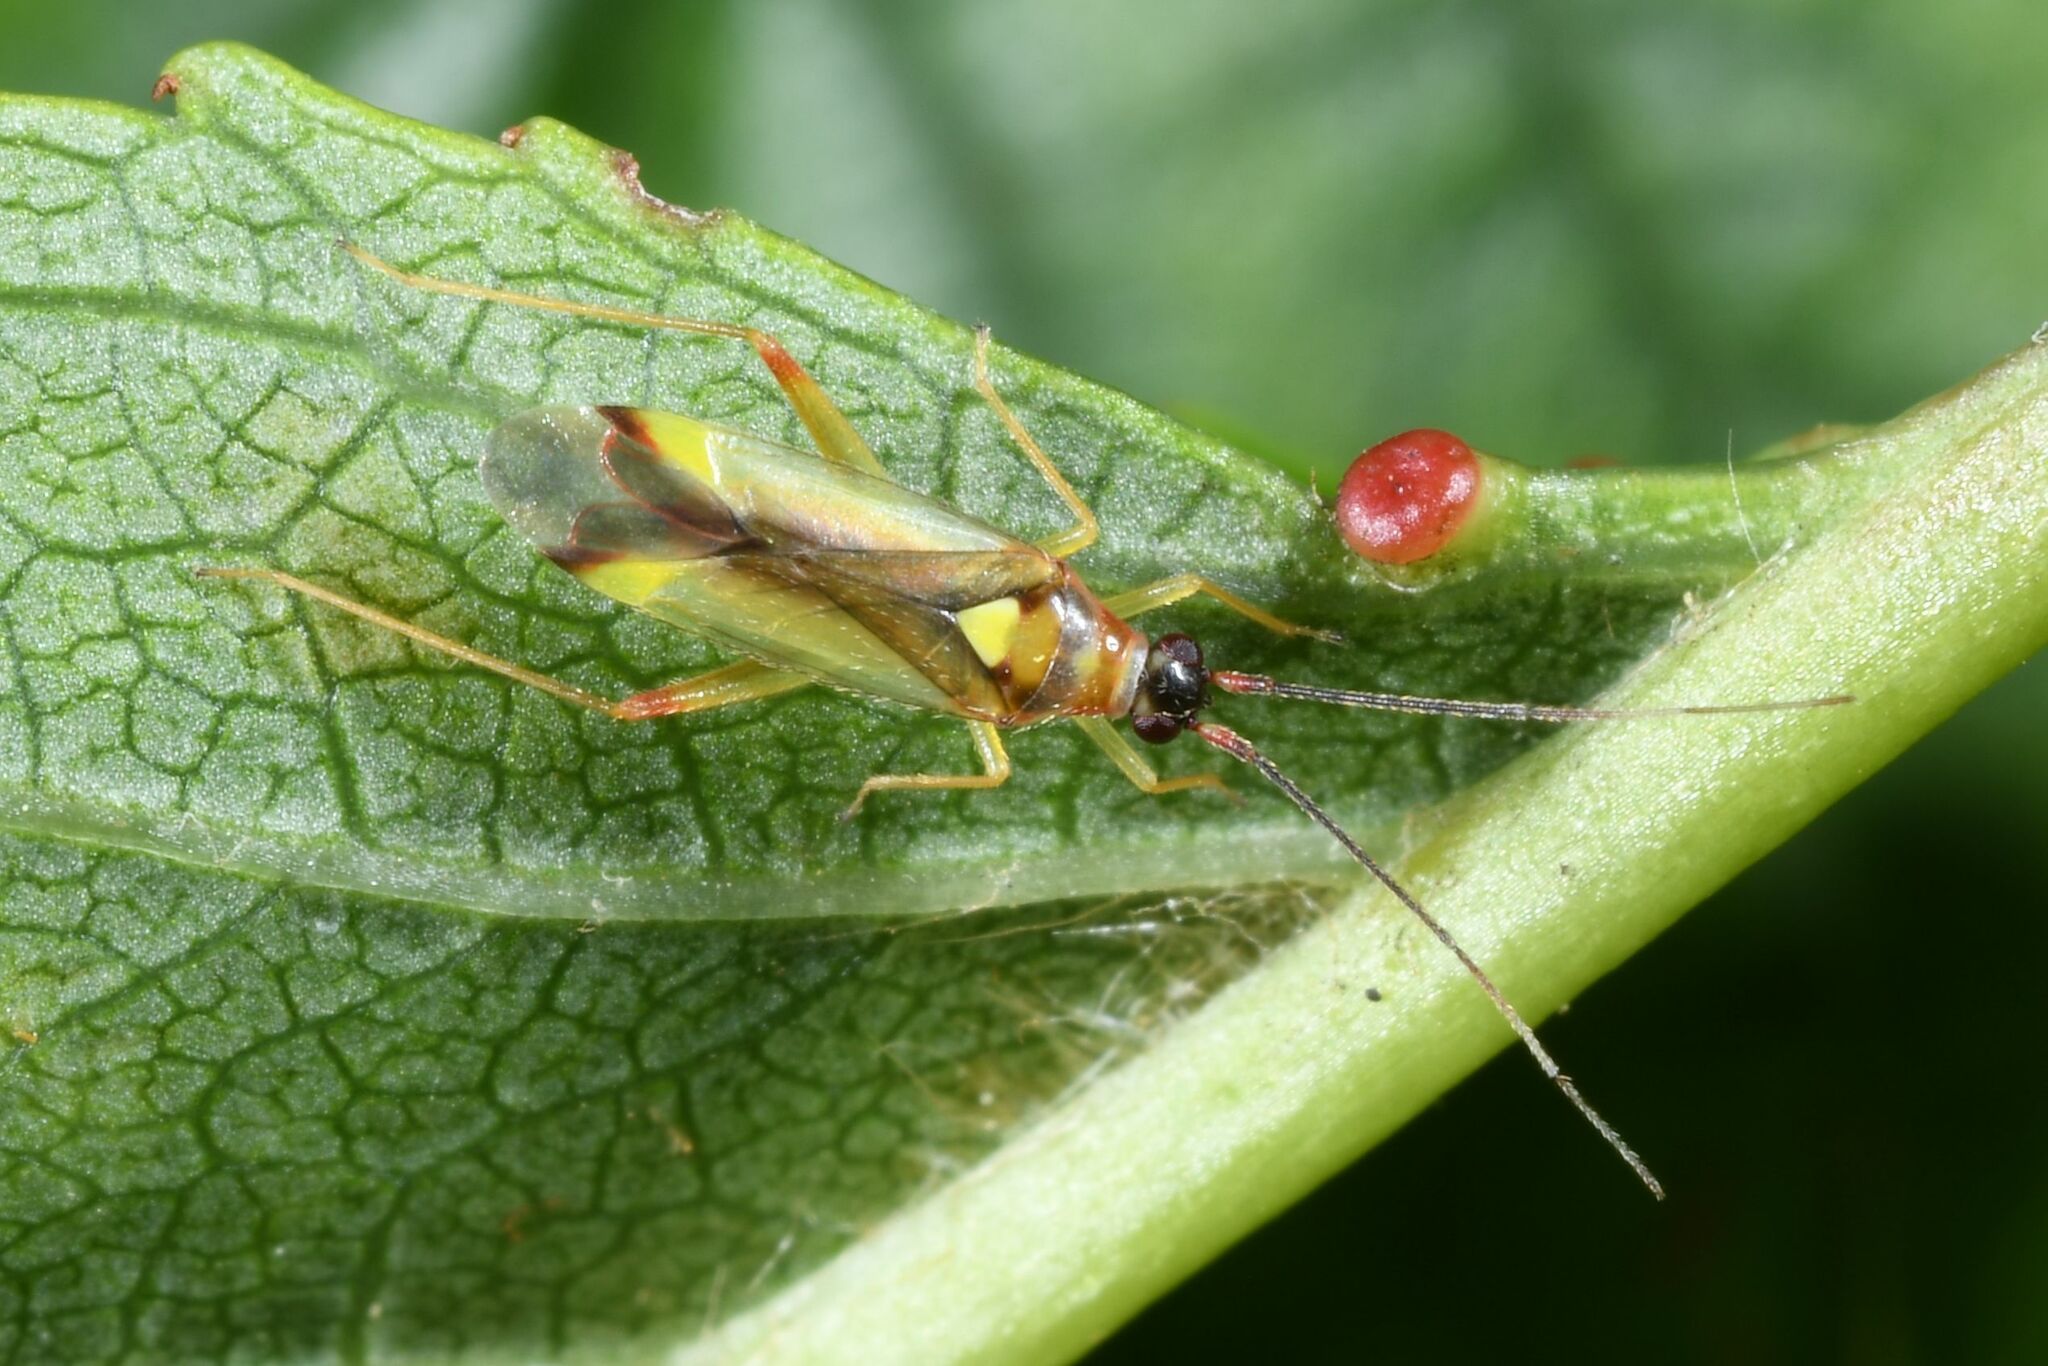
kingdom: Animalia
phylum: Arthropoda
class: Insecta
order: Hemiptera
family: Miridae
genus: Campyloneura
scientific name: Campyloneura virgula
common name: Predatory bug
